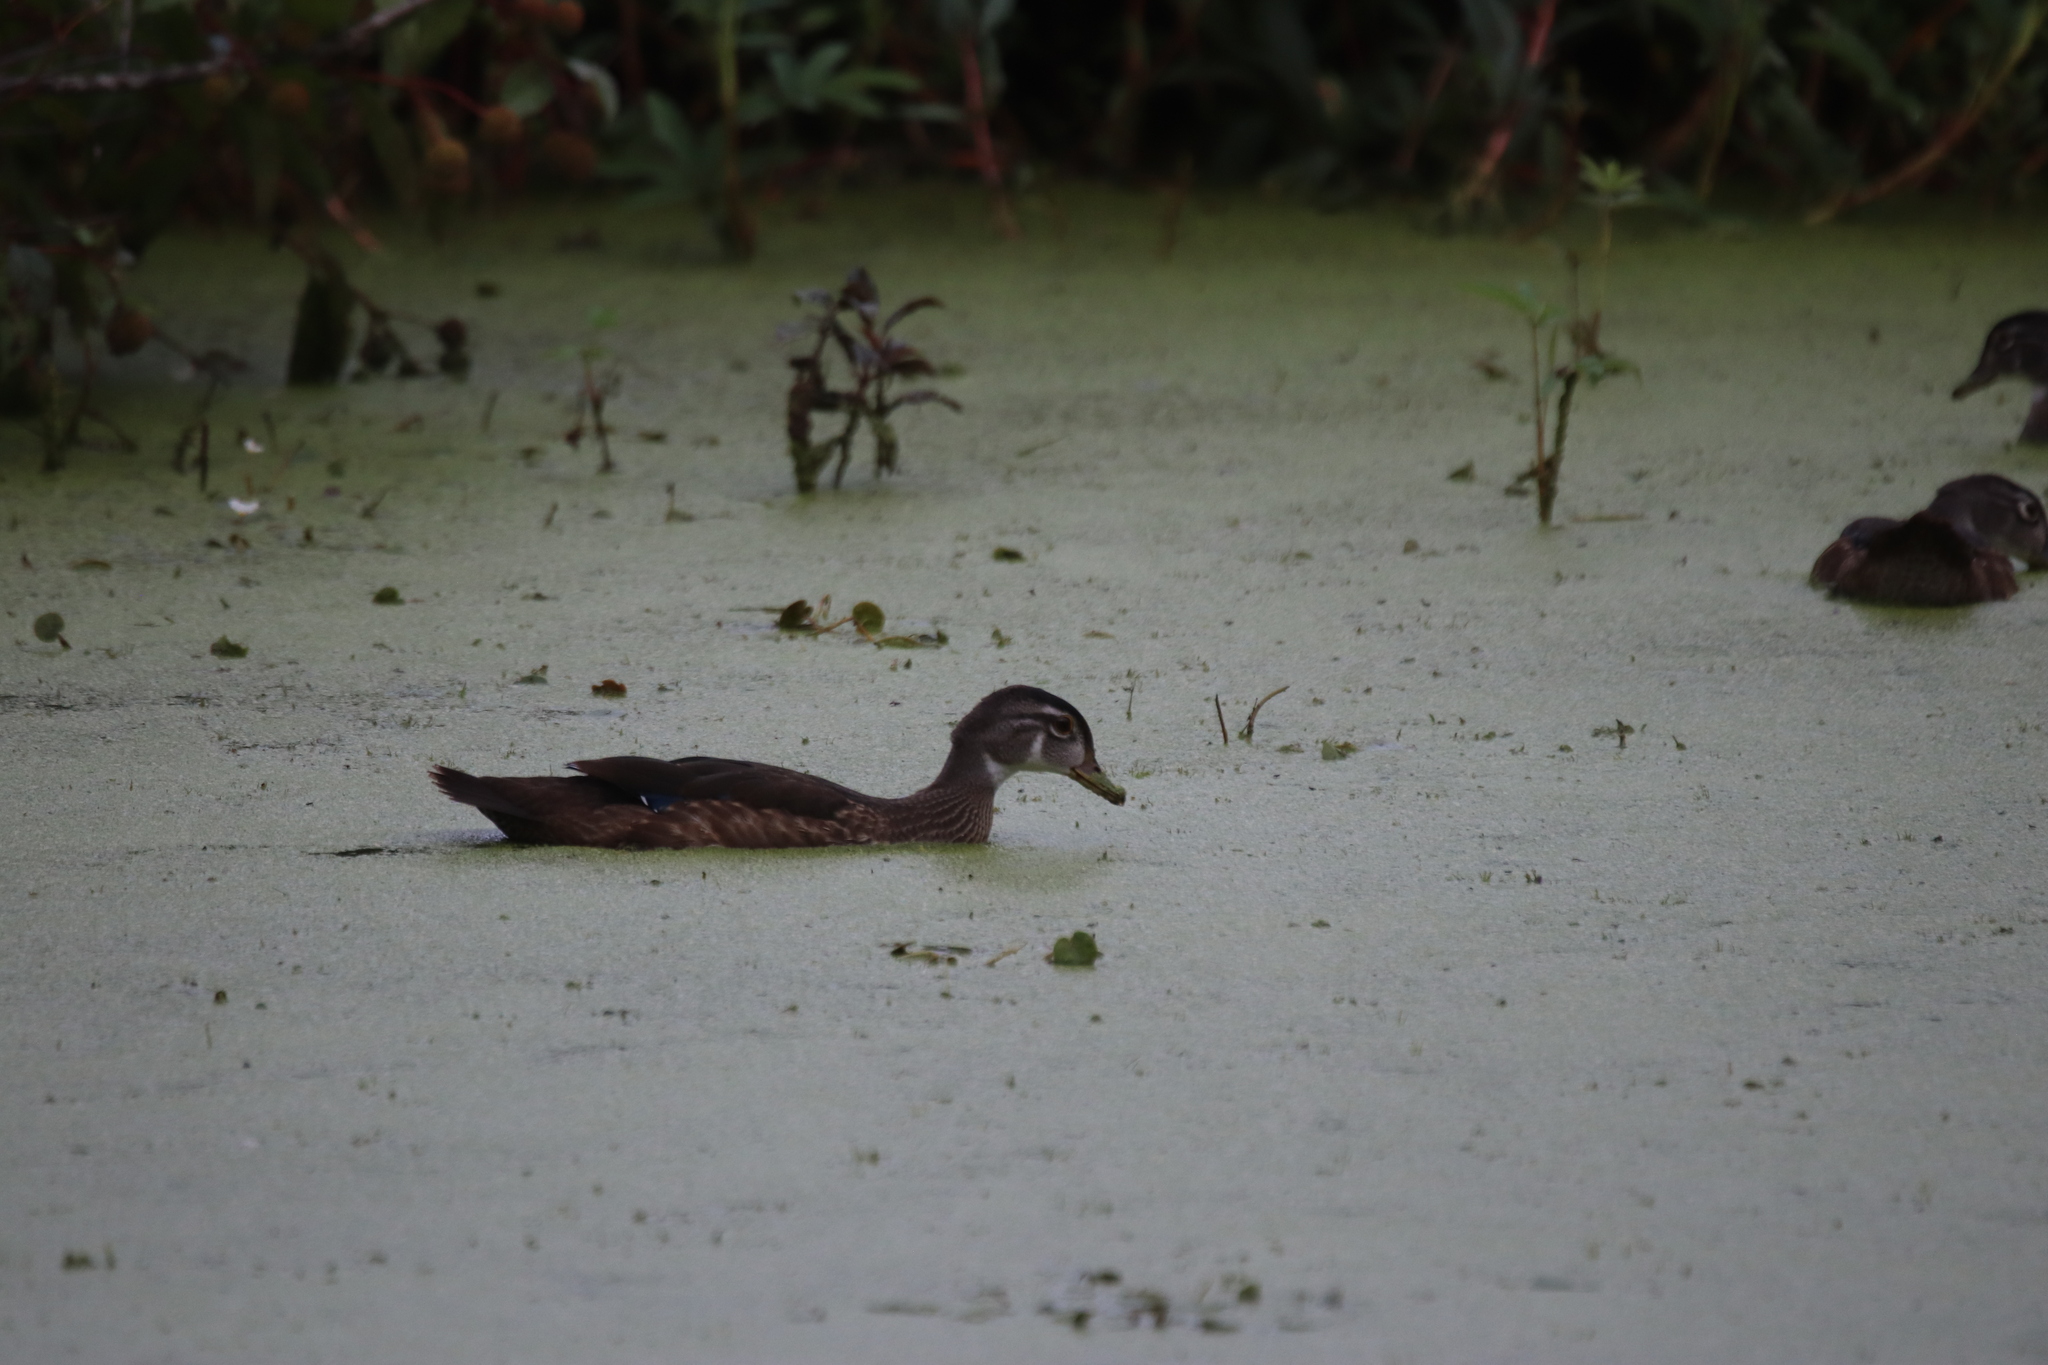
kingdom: Animalia
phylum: Chordata
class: Aves
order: Anseriformes
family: Anatidae
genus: Aix
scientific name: Aix sponsa
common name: Wood duck
